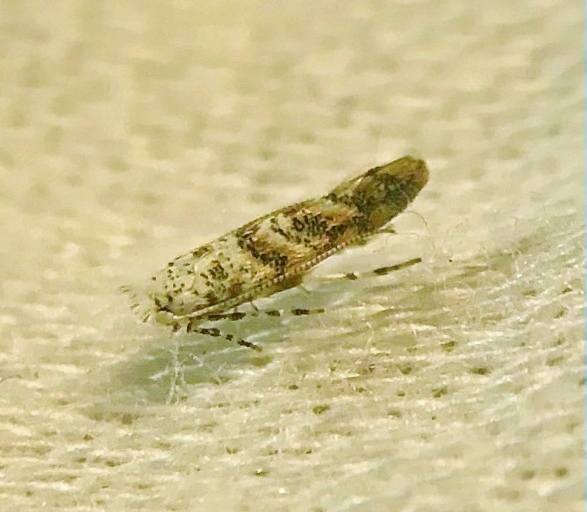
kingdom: Animalia
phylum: Arthropoda
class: Insecta
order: Lepidoptera
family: Gracillariidae
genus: Cameraria
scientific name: Cameraria hamadryadella
